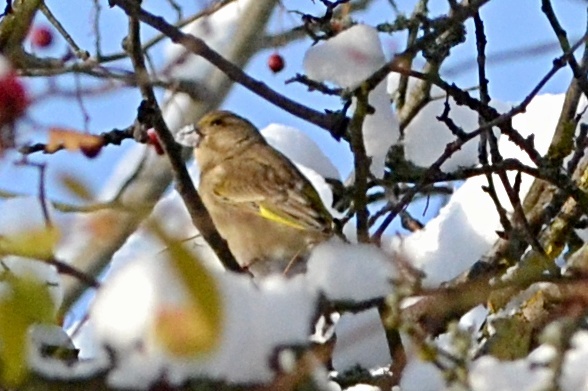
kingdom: Plantae
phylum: Tracheophyta
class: Liliopsida
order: Poales
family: Poaceae
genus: Chloris
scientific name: Chloris chloris
